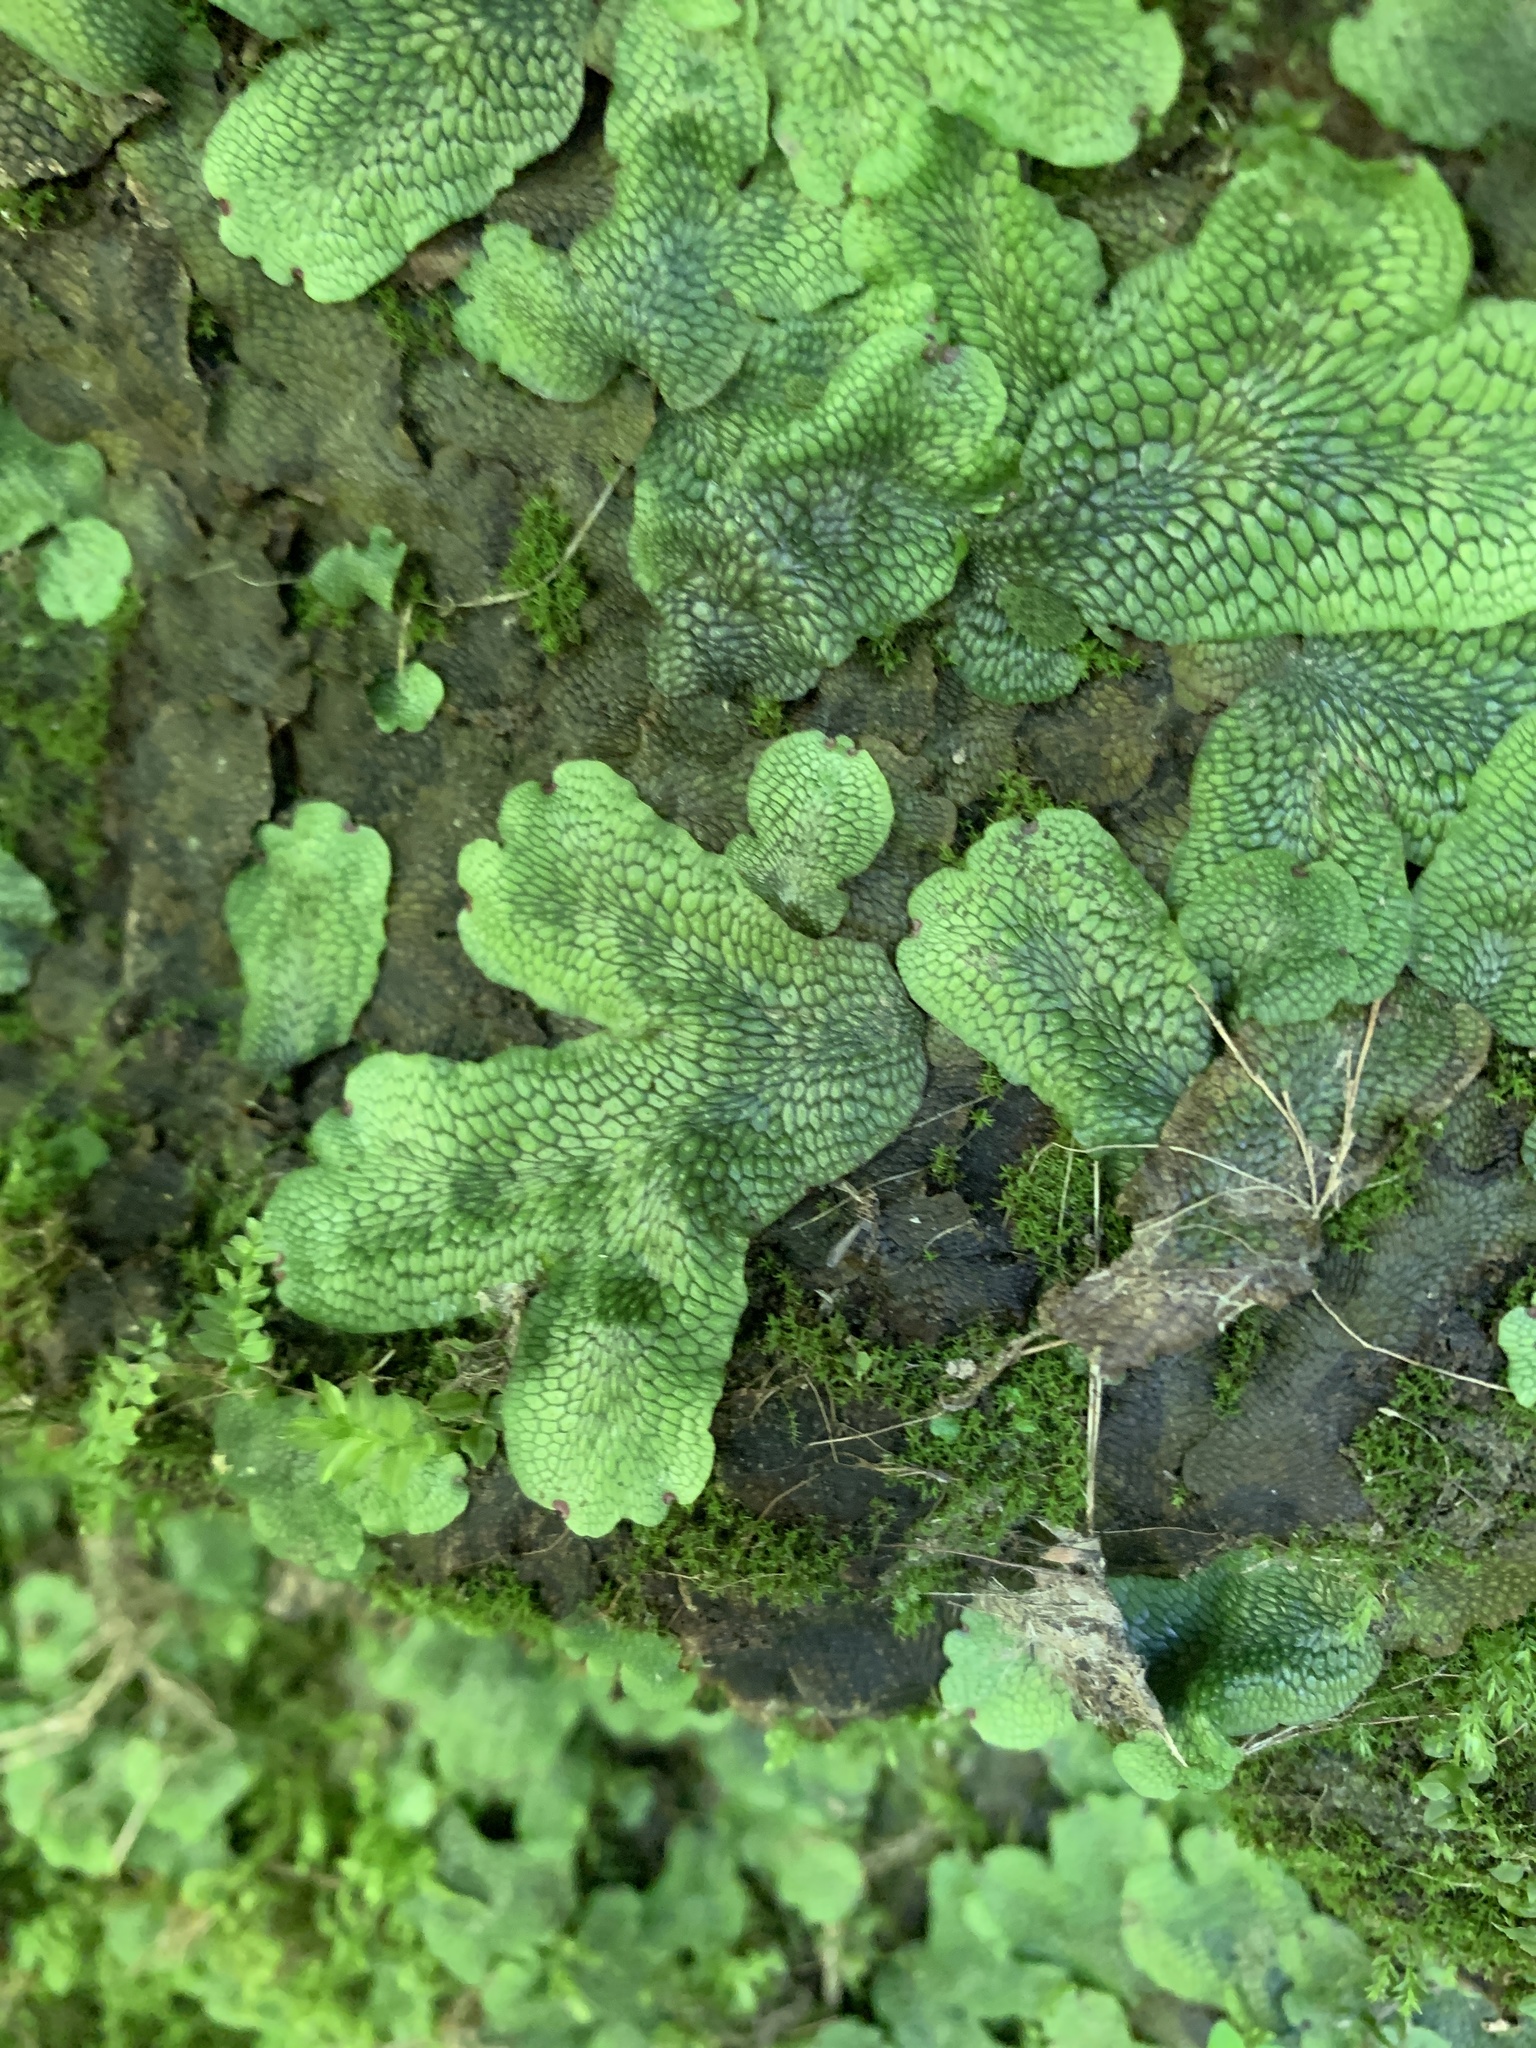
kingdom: Plantae
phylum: Marchantiophyta
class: Marchantiopsida
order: Marchantiales
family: Conocephalaceae
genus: Conocephalum
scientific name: Conocephalum salebrosum
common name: Cat-tongue liverwort
